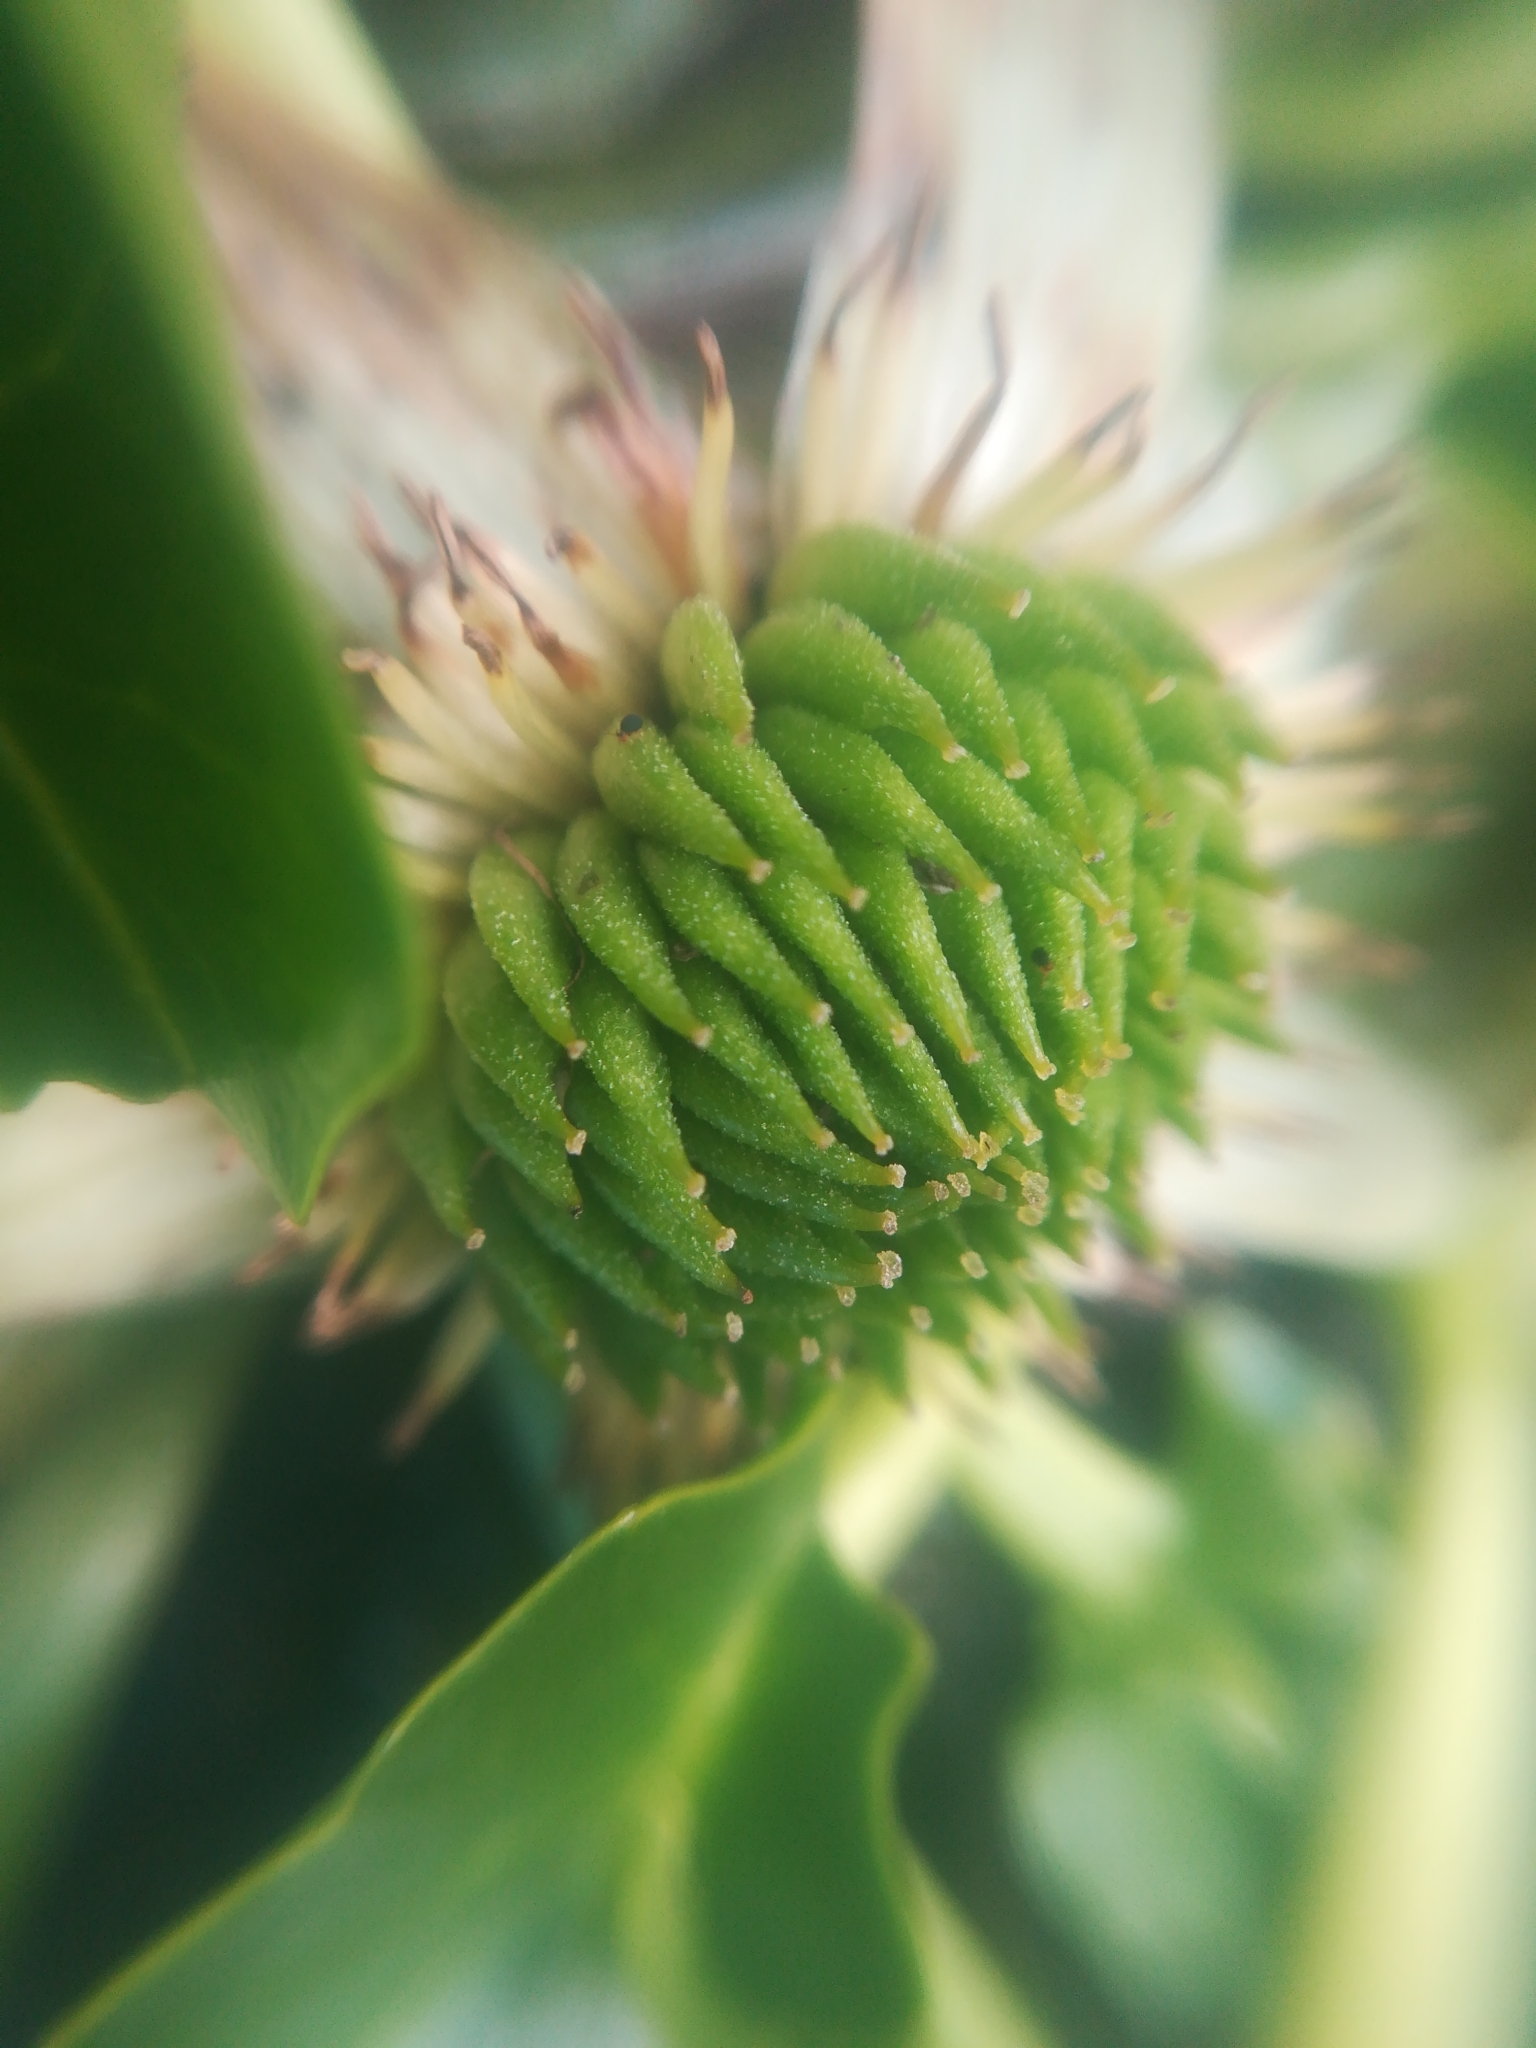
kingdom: Plantae
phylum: Tracheophyta
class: Magnoliopsida
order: Ranunculales
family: Ranunculaceae
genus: Caltha
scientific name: Caltha sagittata
